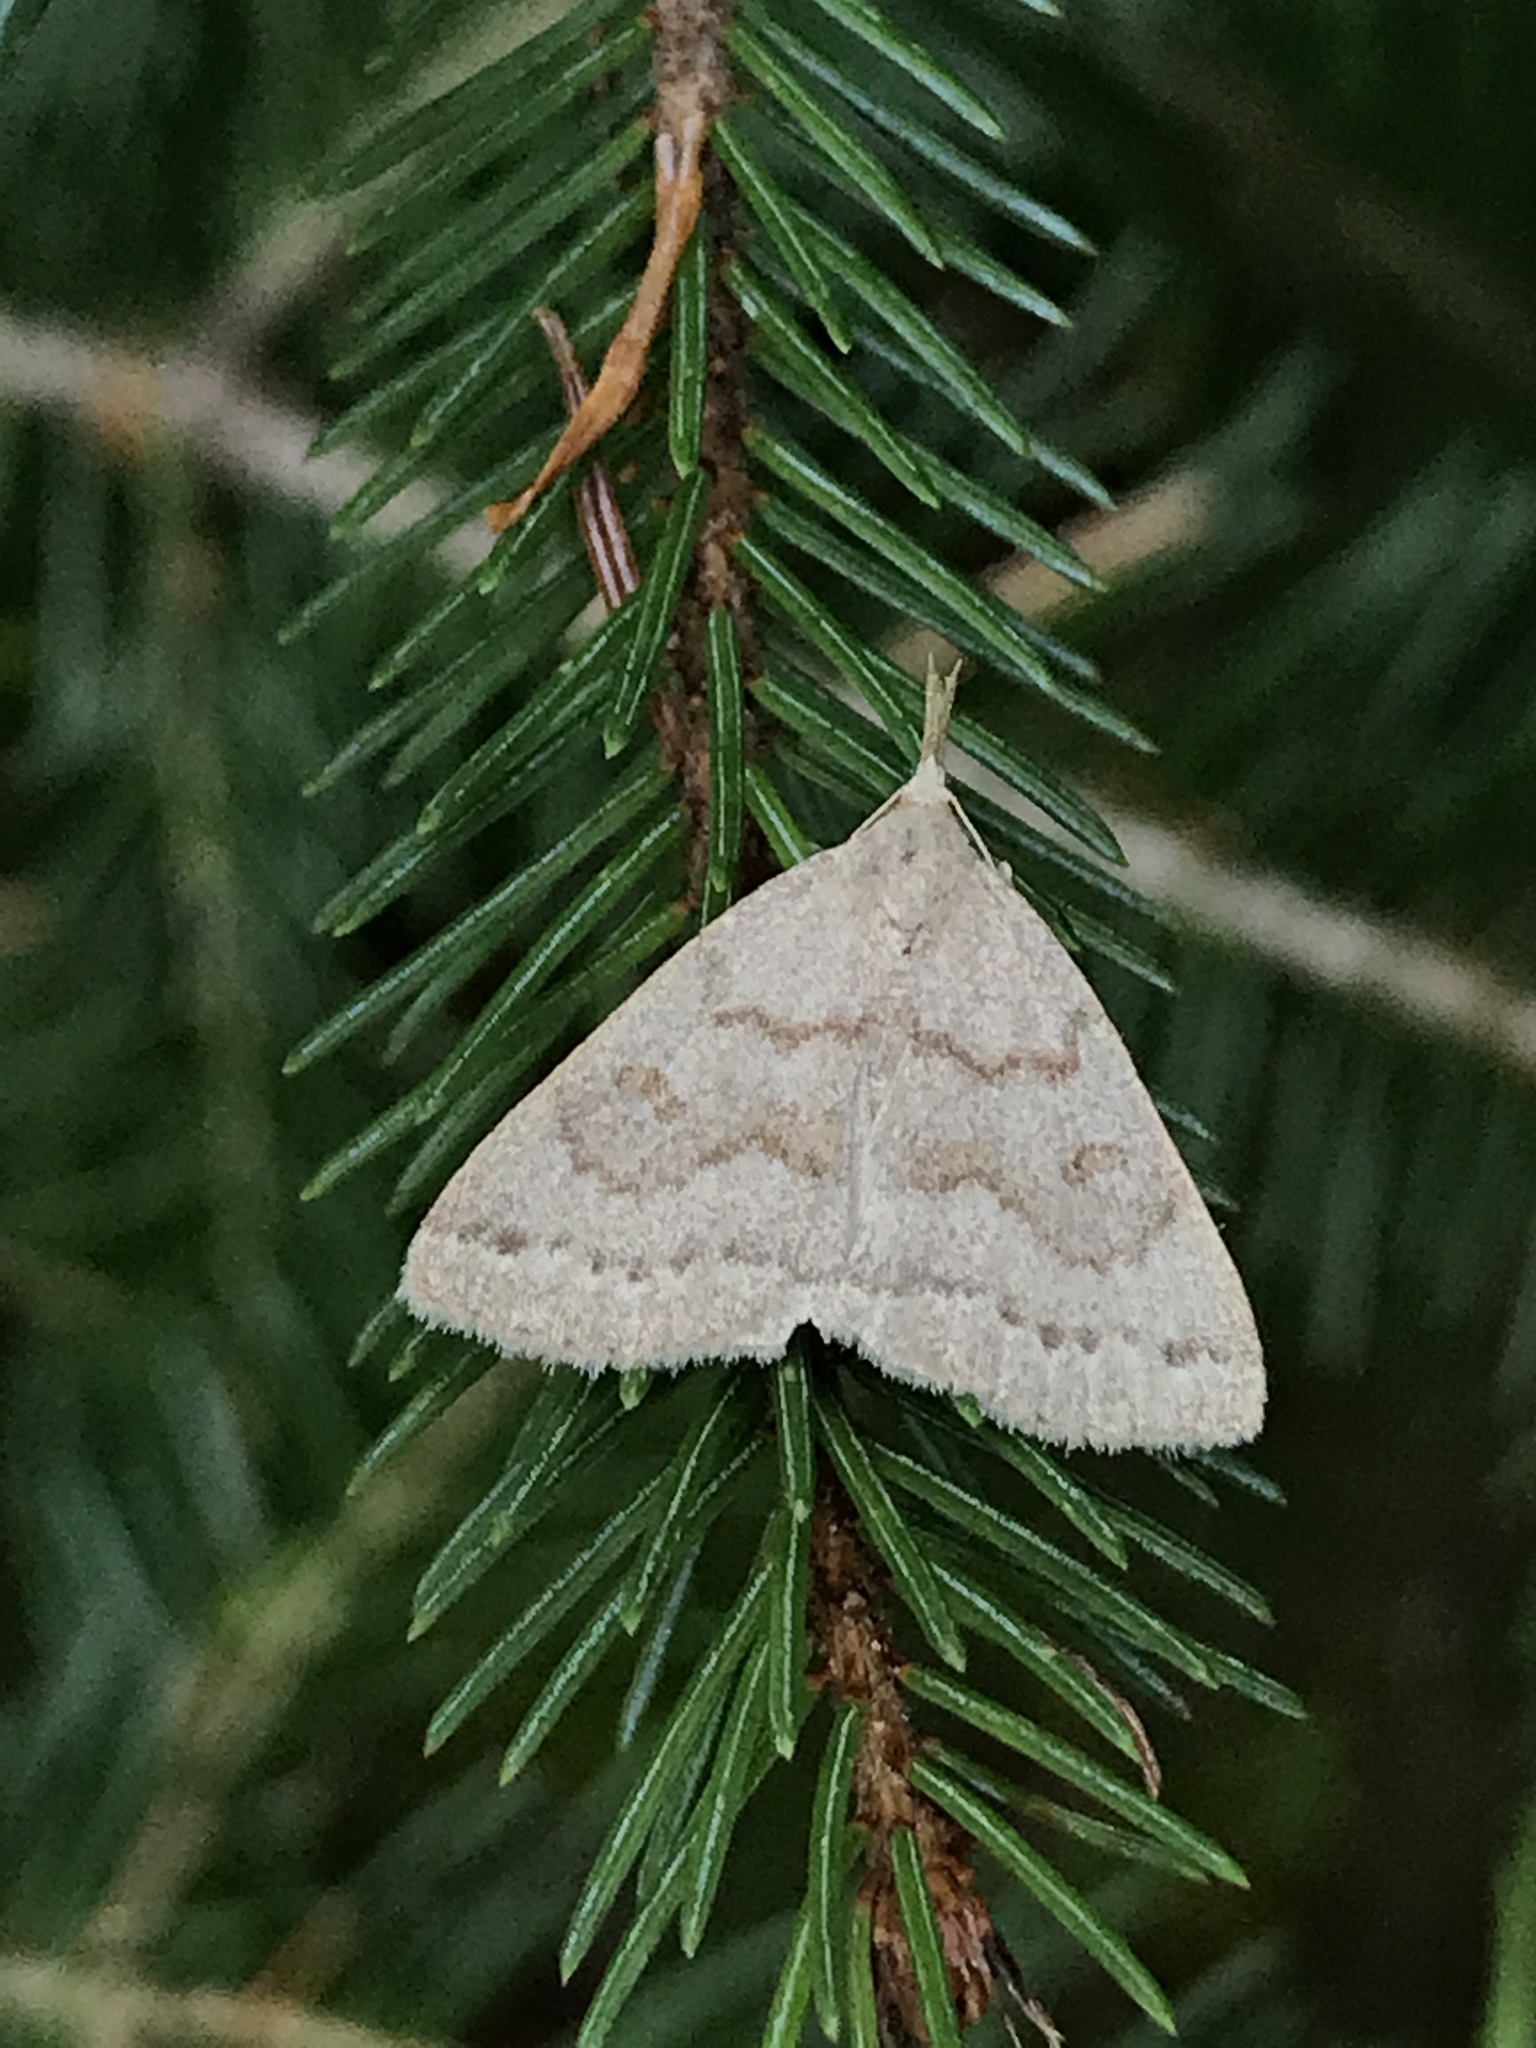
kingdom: Animalia
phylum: Arthropoda
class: Insecta
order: Lepidoptera
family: Erebidae
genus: Macrochilo
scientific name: Macrochilo morbidalis
